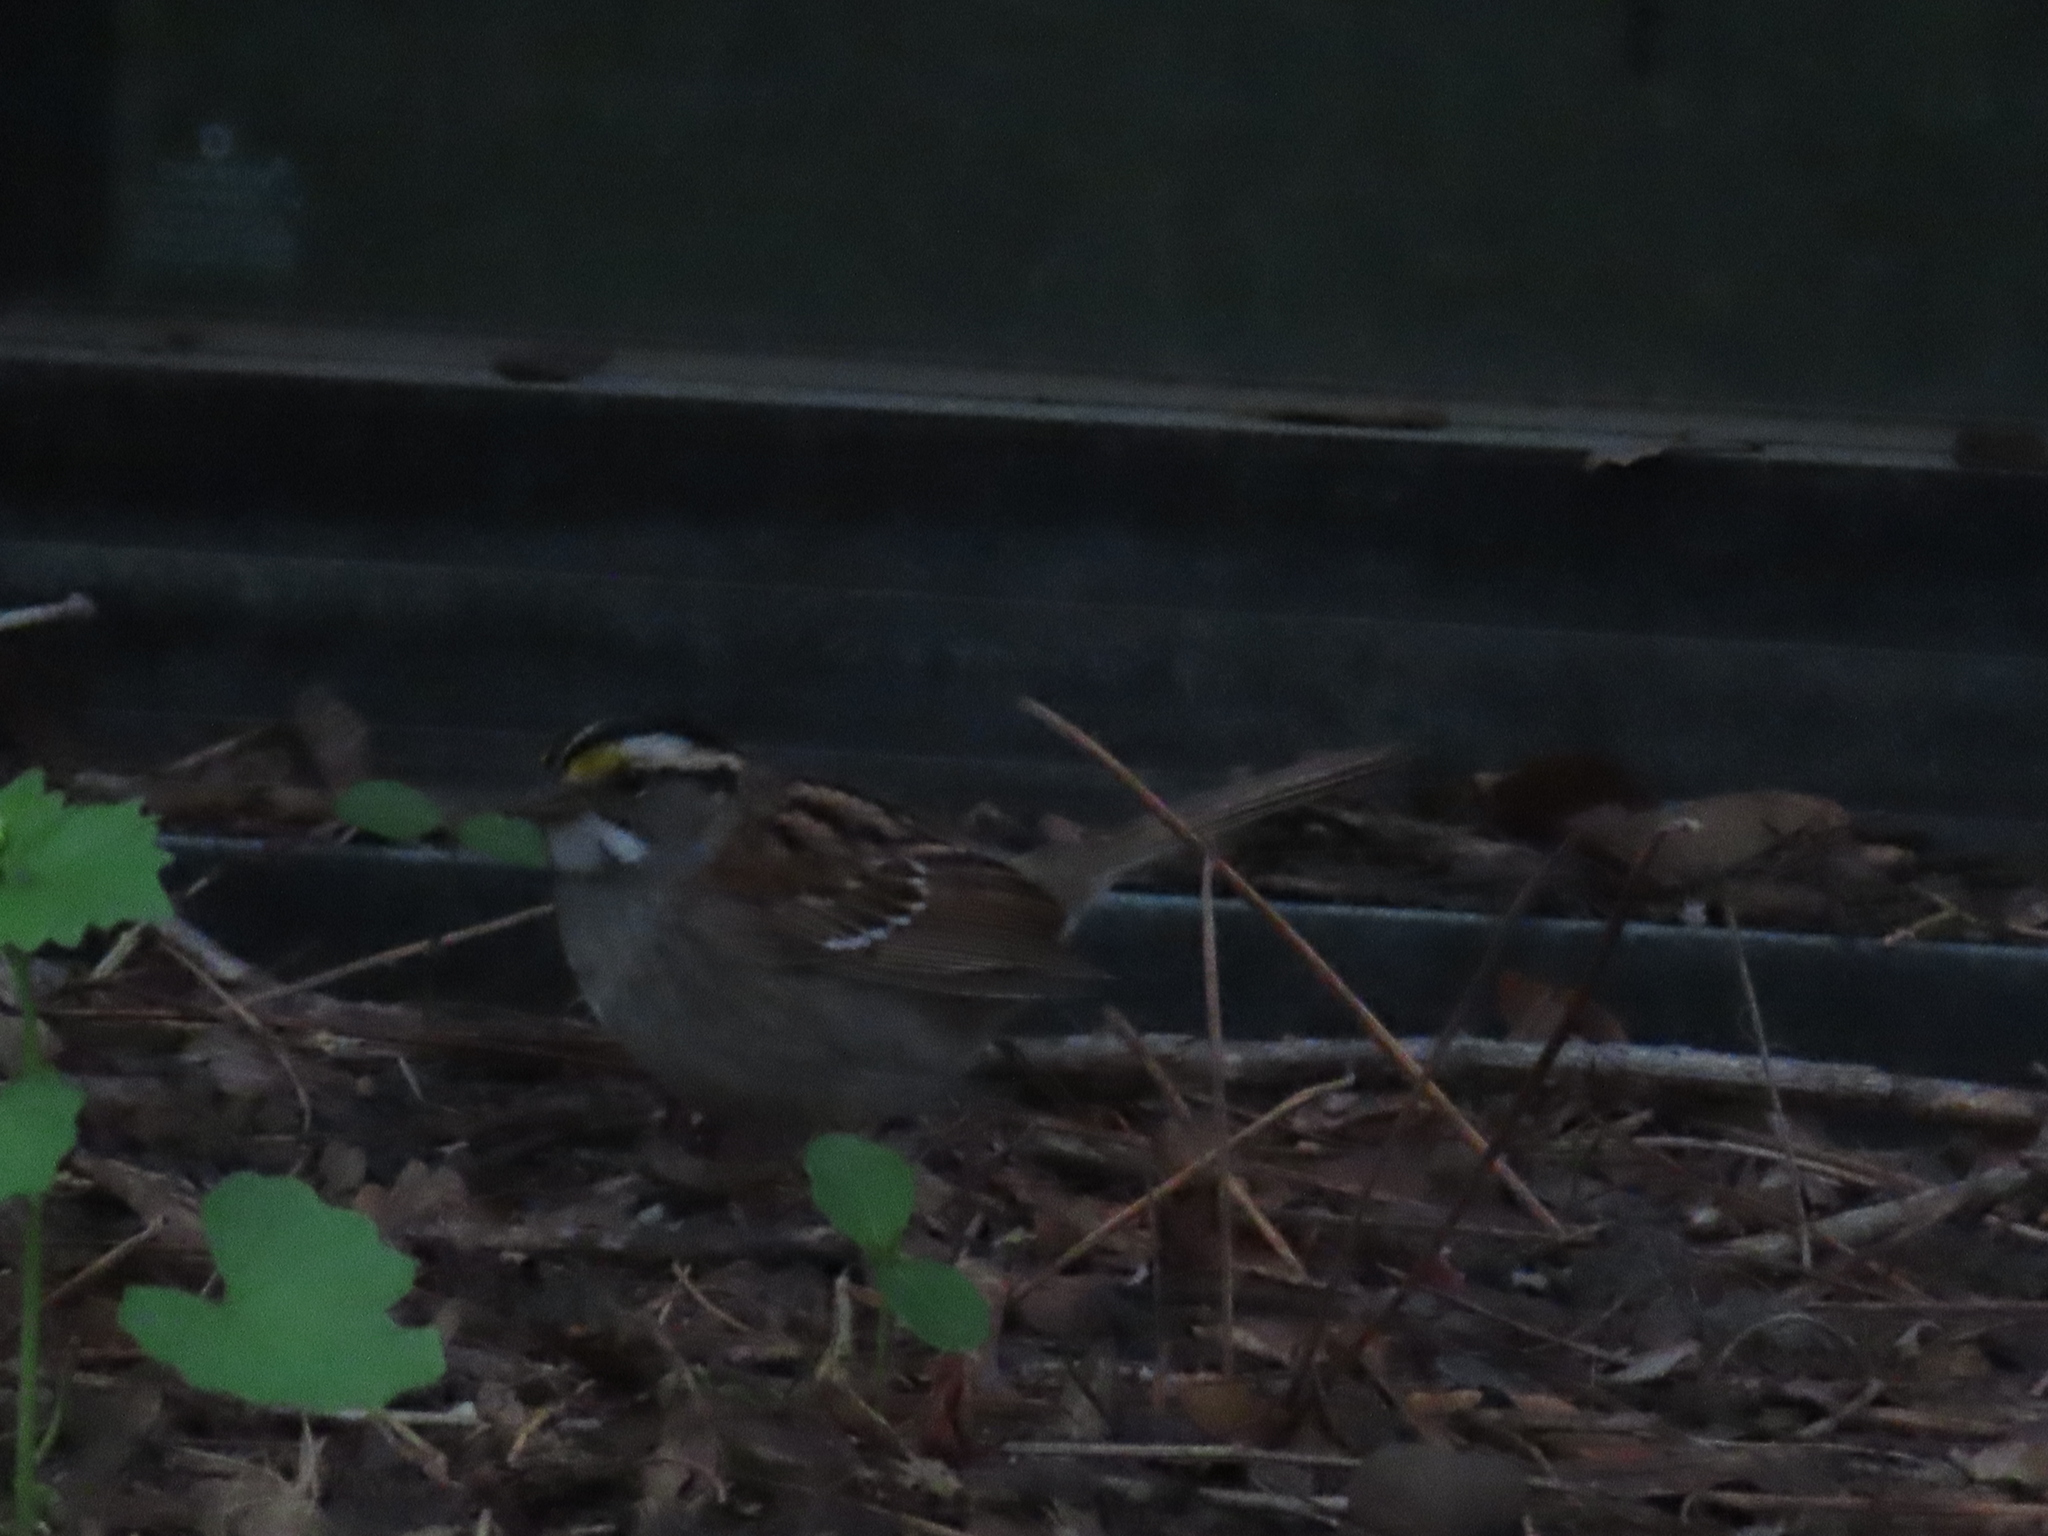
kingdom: Animalia
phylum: Chordata
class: Aves
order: Passeriformes
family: Passerellidae
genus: Zonotrichia
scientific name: Zonotrichia albicollis
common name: White-throated sparrow
